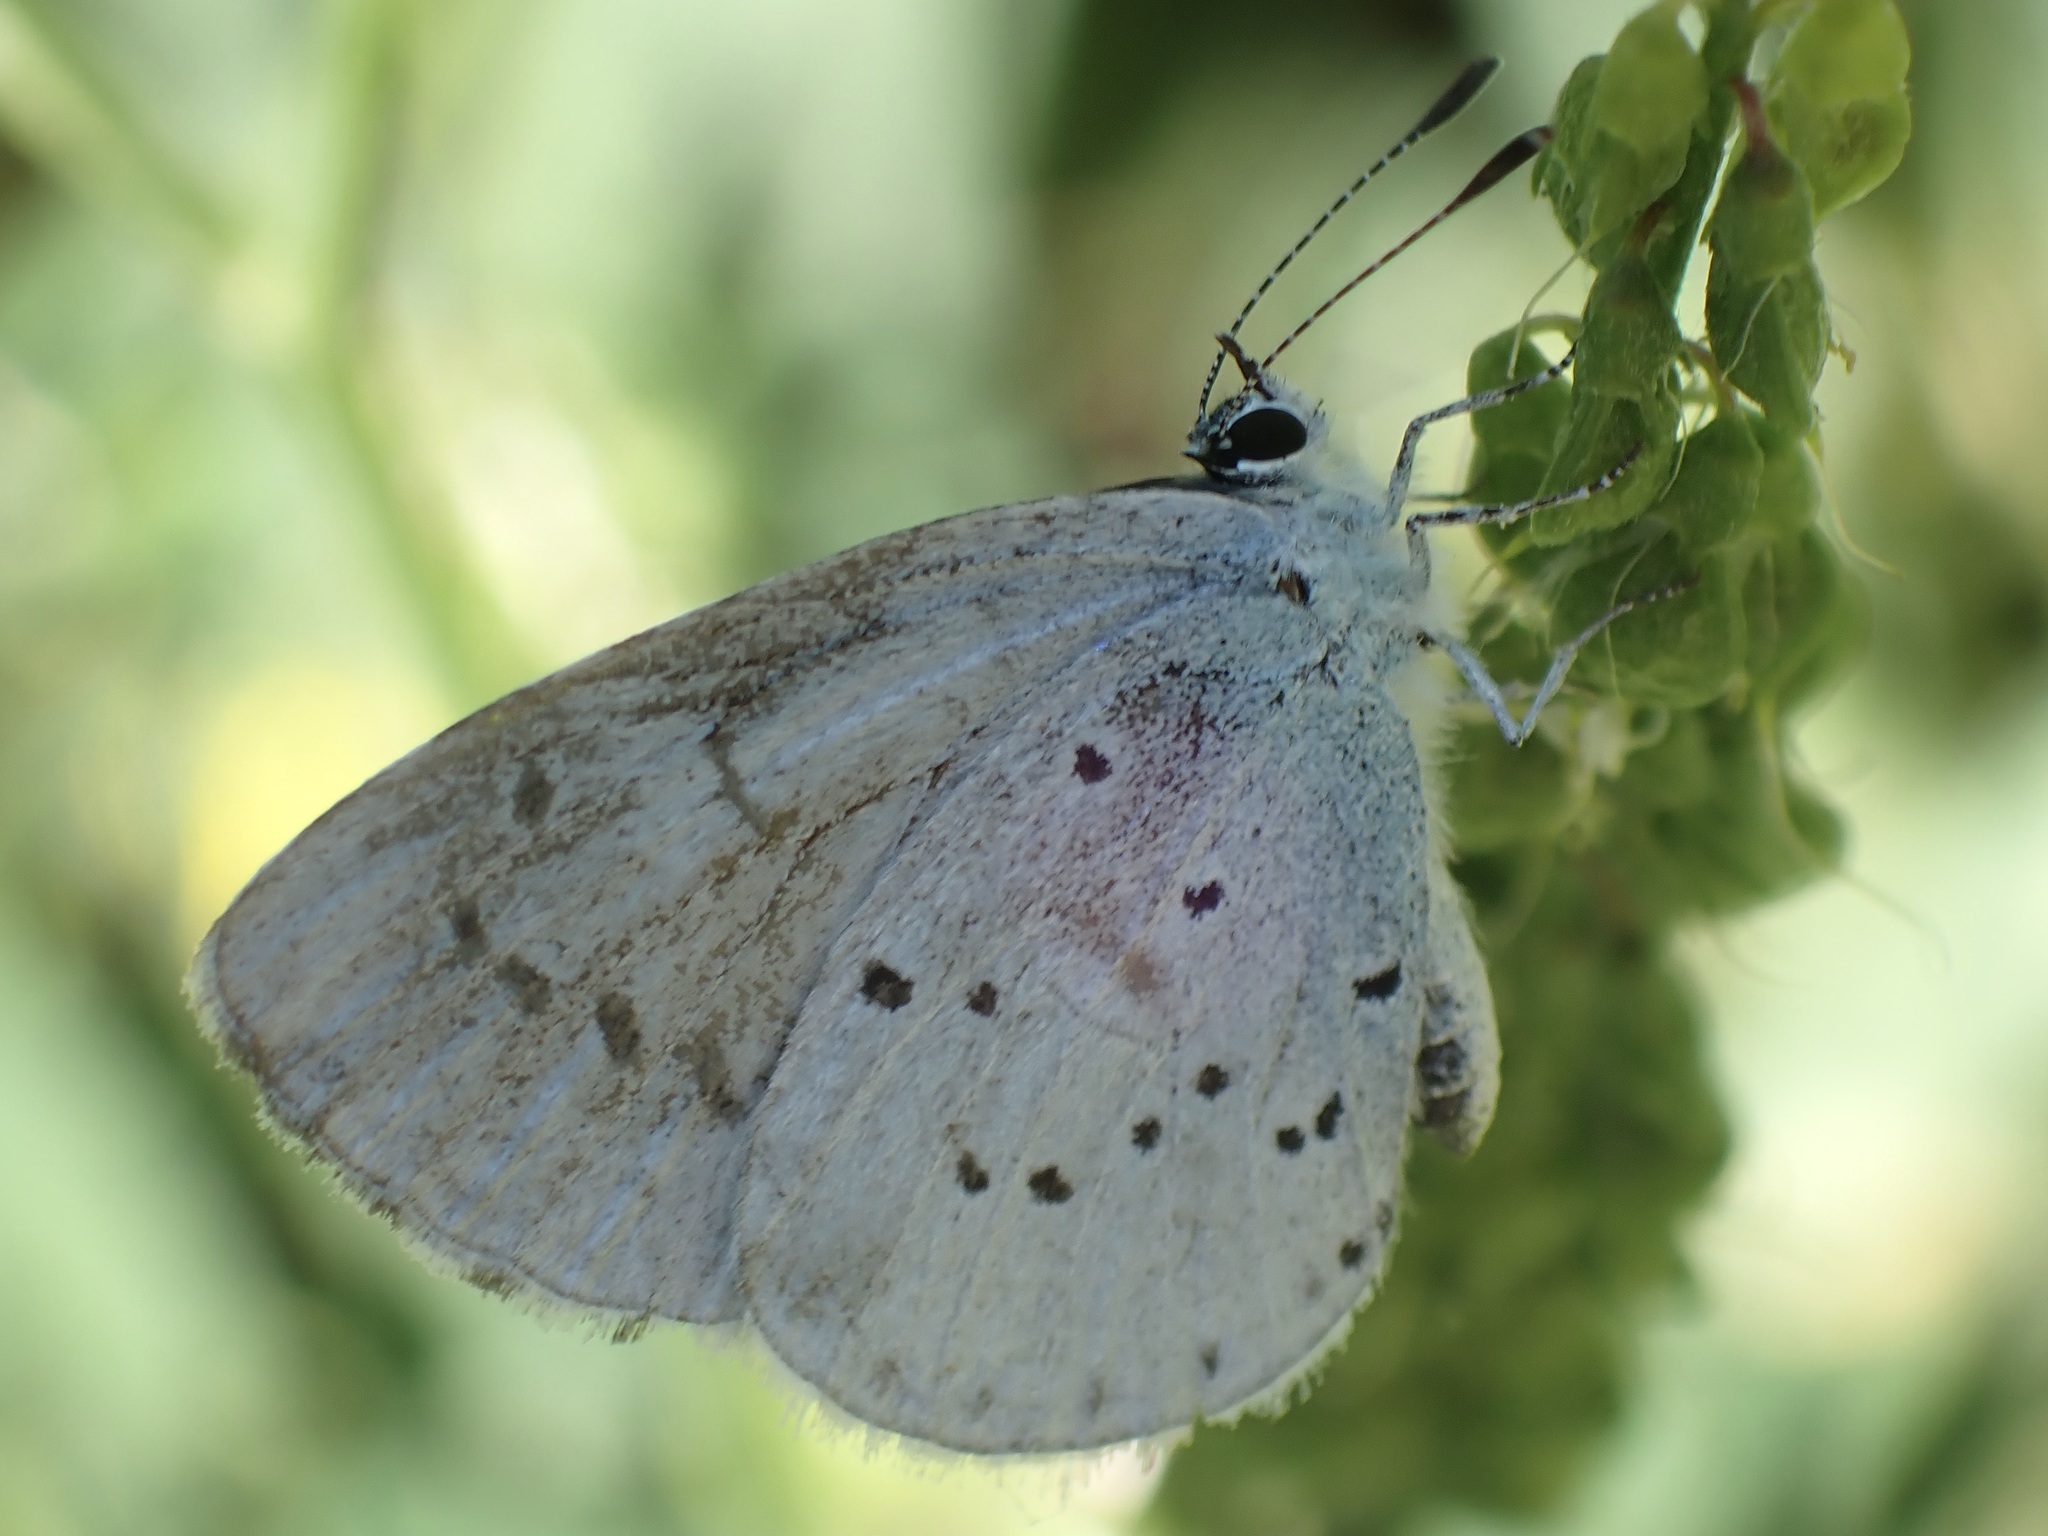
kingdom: Animalia
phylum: Arthropoda
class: Insecta
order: Lepidoptera
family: Lycaenidae
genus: Celastrina
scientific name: Celastrina argiolus
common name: Holly blue
